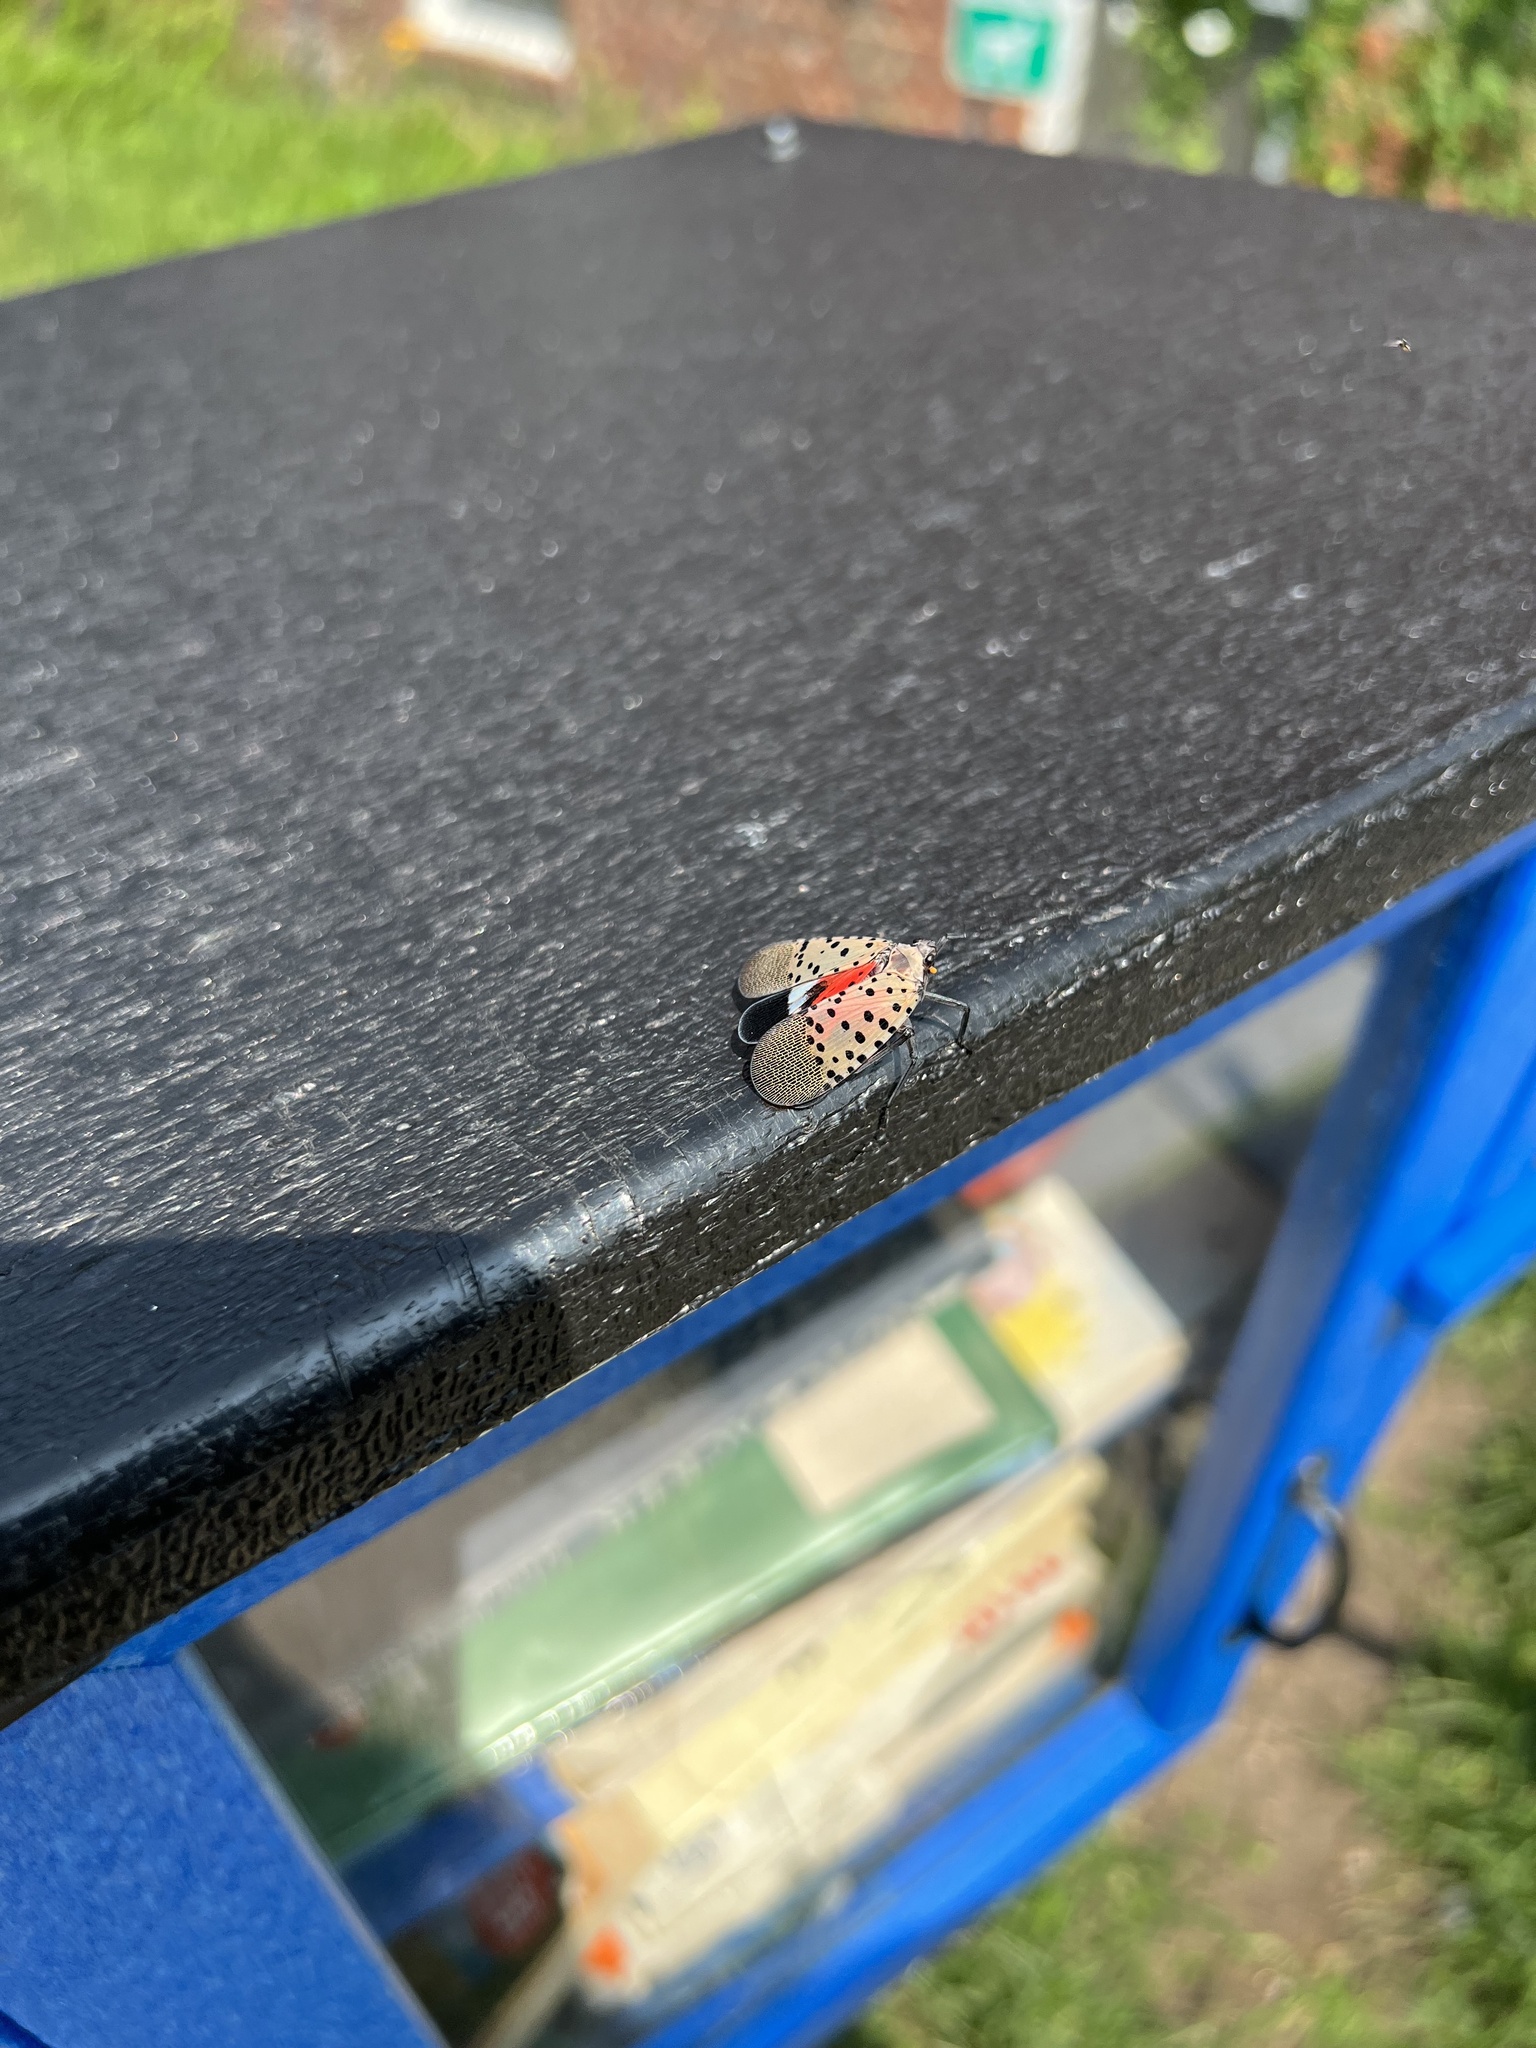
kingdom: Animalia
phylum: Arthropoda
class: Insecta
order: Hemiptera
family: Fulgoridae
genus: Lycorma
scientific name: Lycorma delicatula
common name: Spotted lanternfly
